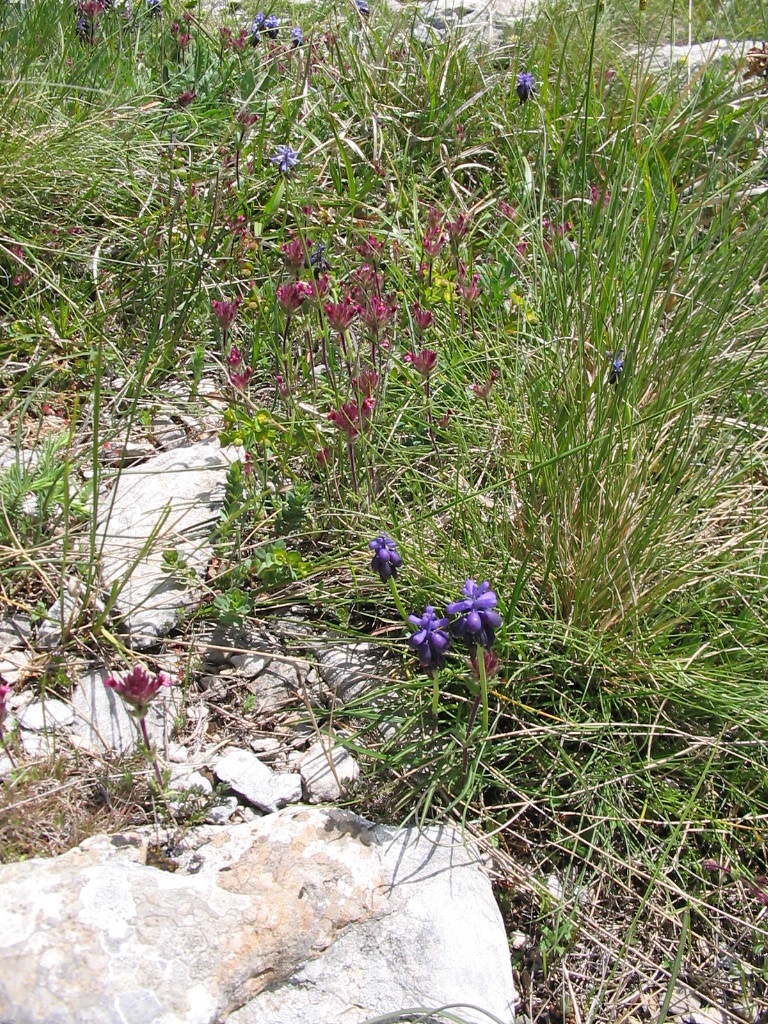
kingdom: Plantae
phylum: Tracheophyta
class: Magnoliopsida
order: Lamiales
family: Orobanchaceae
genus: Parentucellia
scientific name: Parentucellia latifolia
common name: Broadleaf glandweed
